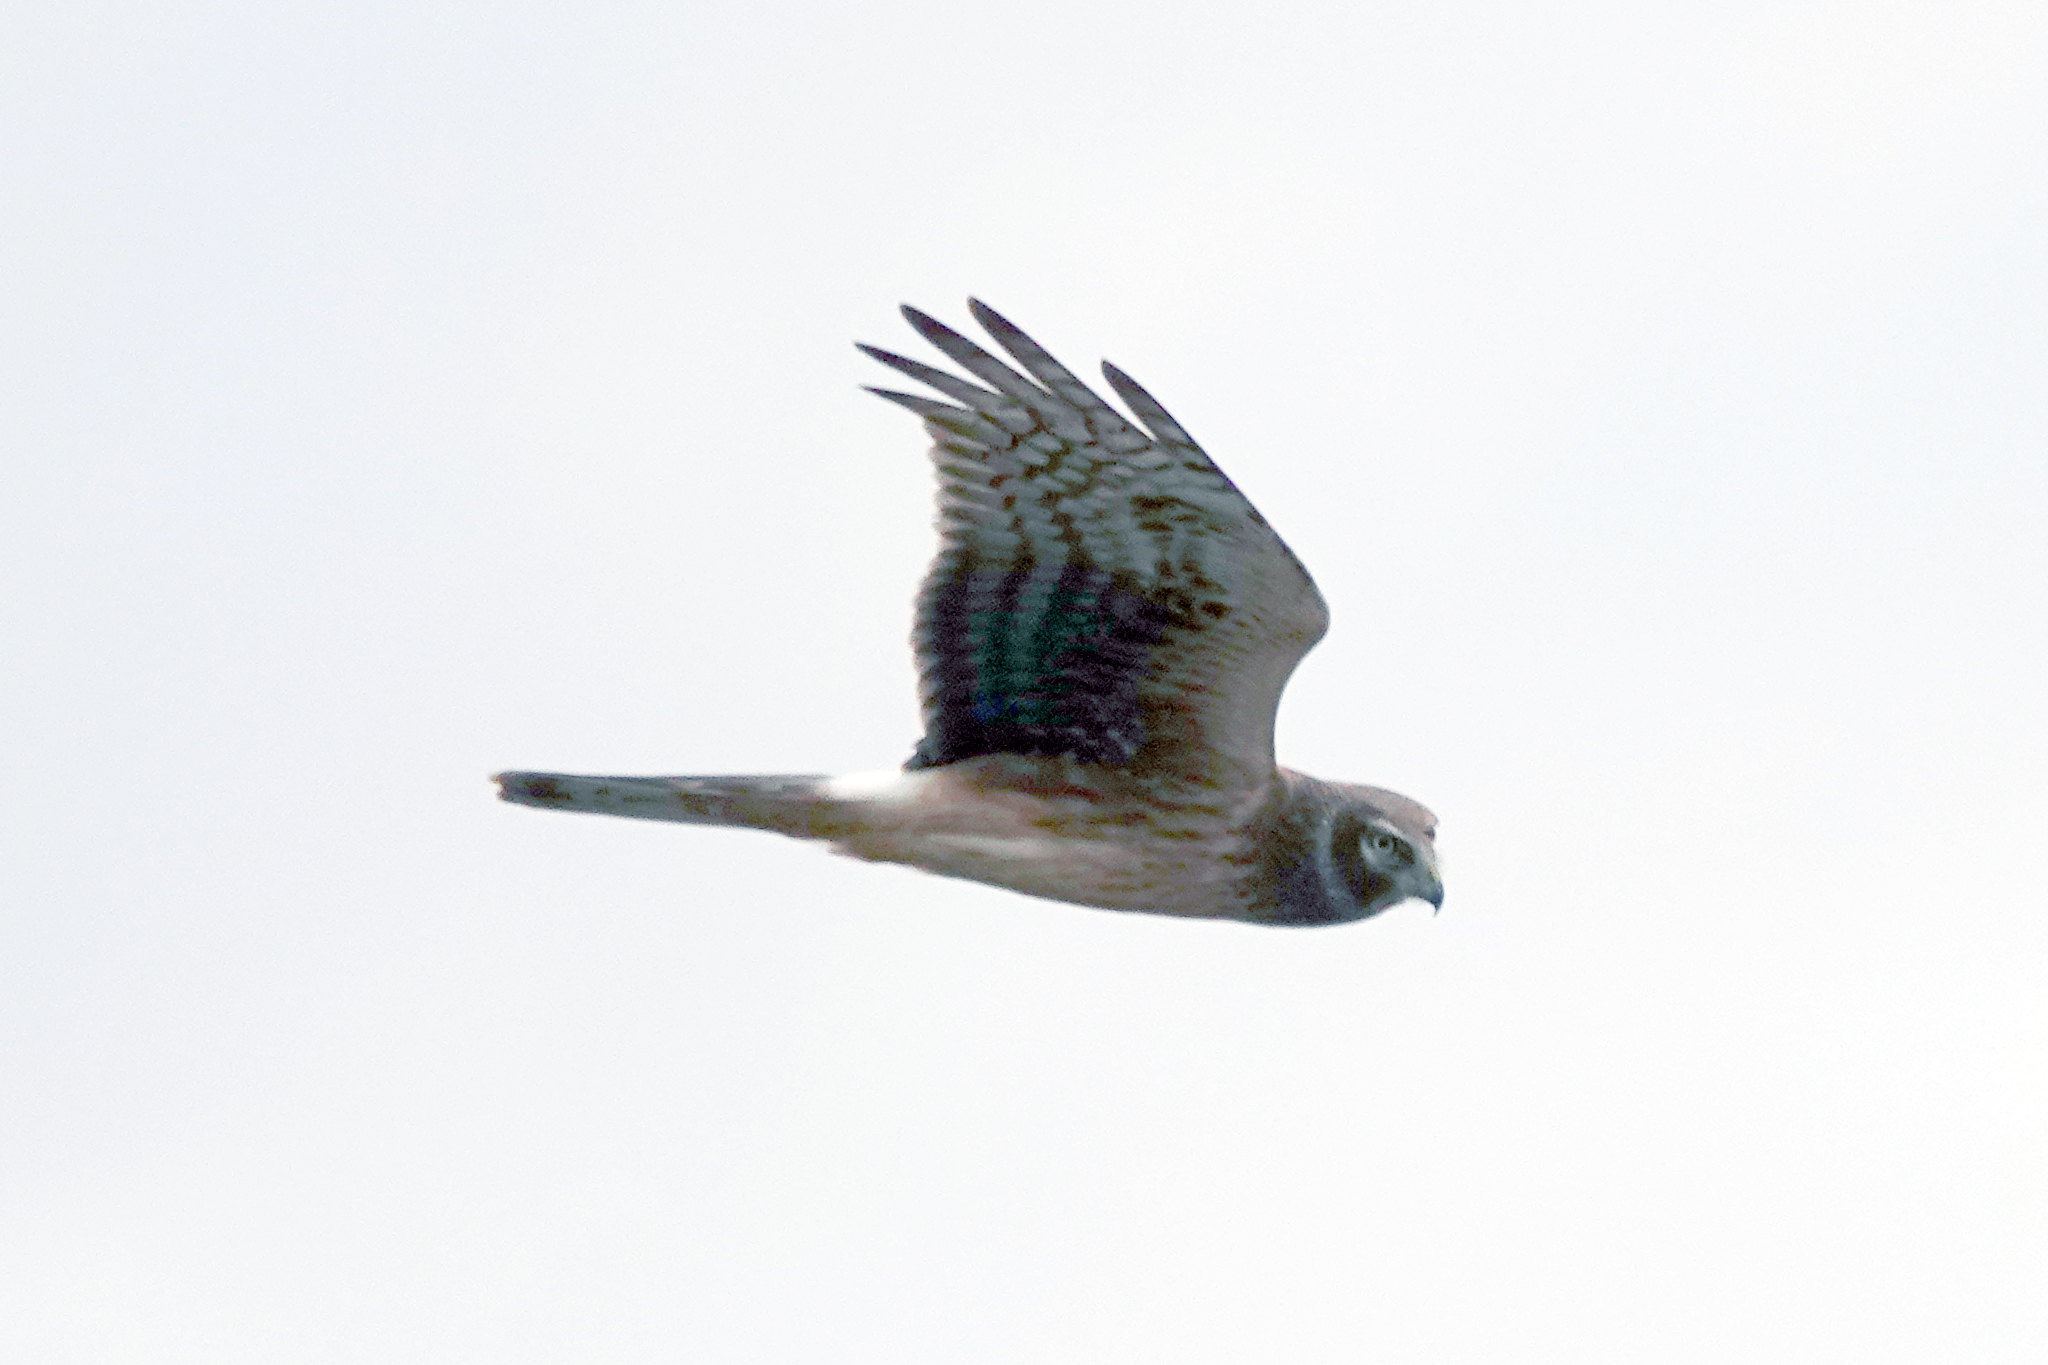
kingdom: Animalia
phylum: Chordata
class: Aves
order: Accipitriformes
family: Accipitridae
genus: Circus
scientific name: Circus cyaneus
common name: Hen harrier
